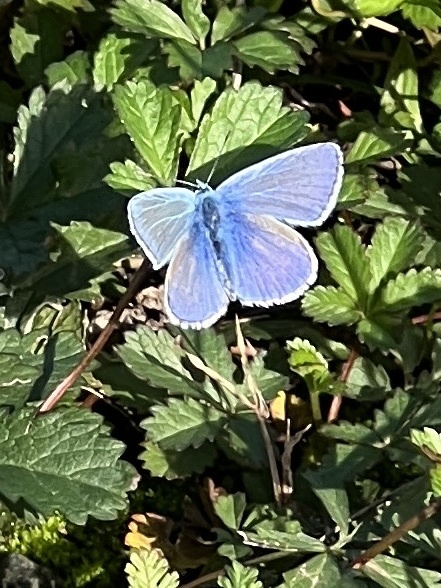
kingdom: Animalia
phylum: Arthropoda
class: Insecta
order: Lepidoptera
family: Lycaenidae
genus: Polyommatus
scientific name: Polyommatus icarus
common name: Common blue
